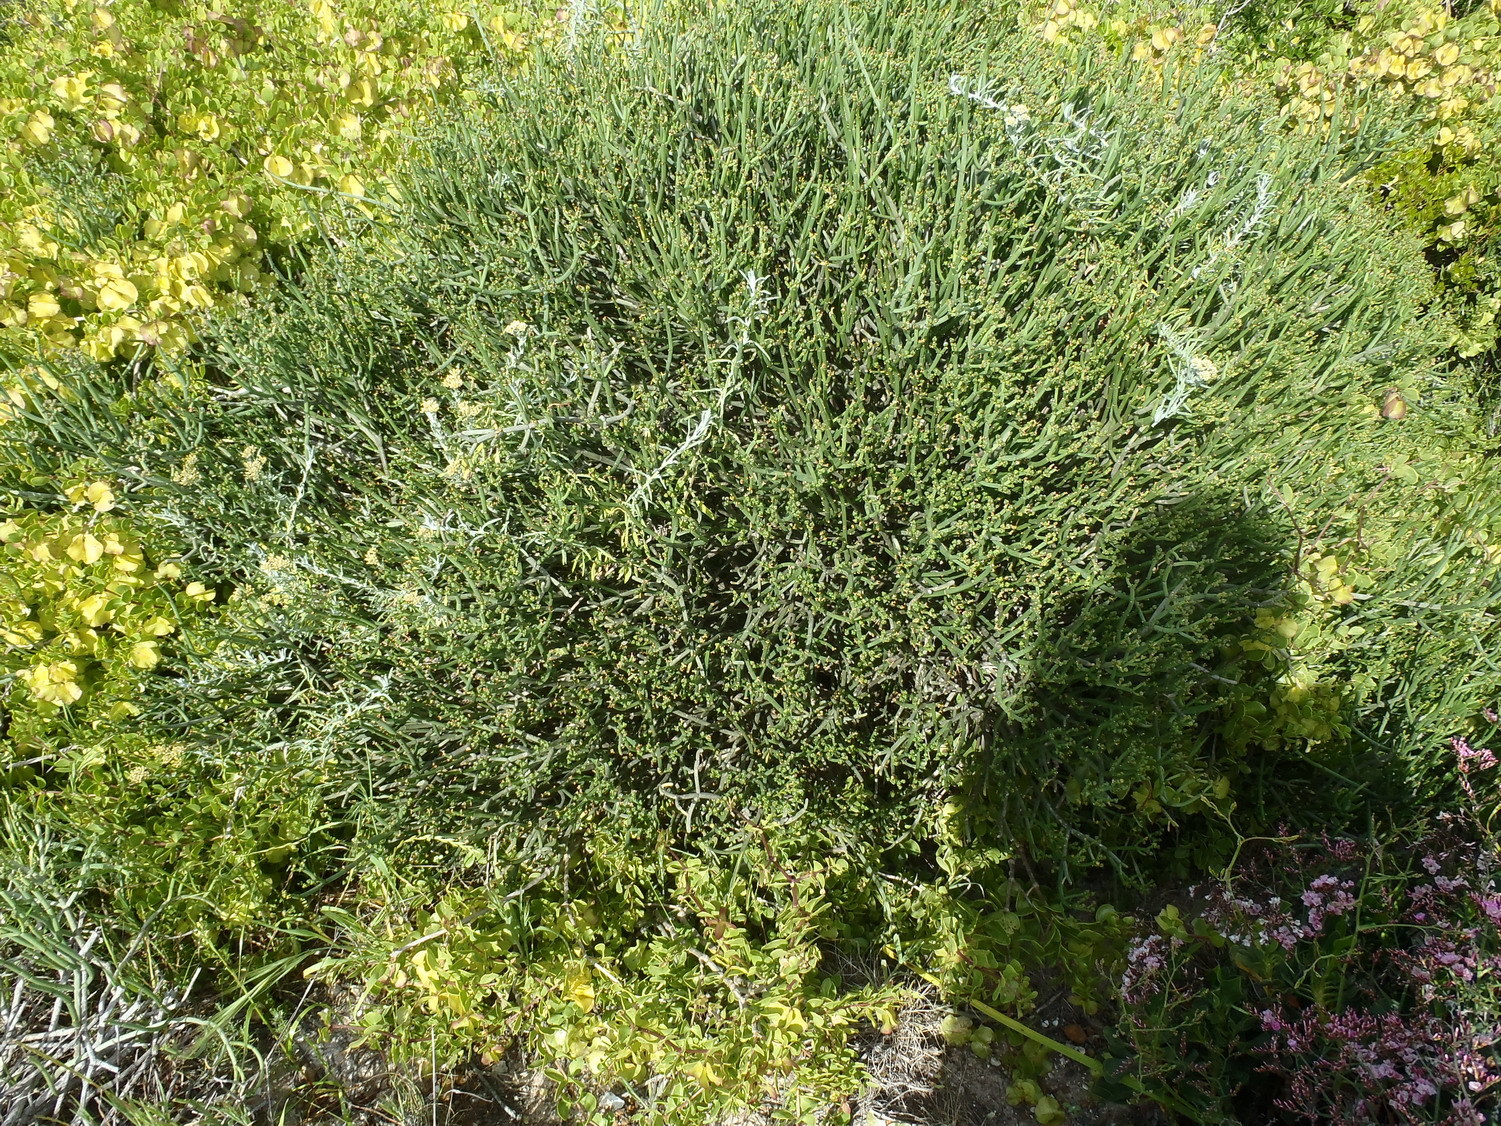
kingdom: Plantae
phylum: Tracheophyta
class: Magnoliopsida
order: Malpighiales
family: Euphorbiaceae
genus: Euphorbia
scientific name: Euphorbia burmanni
